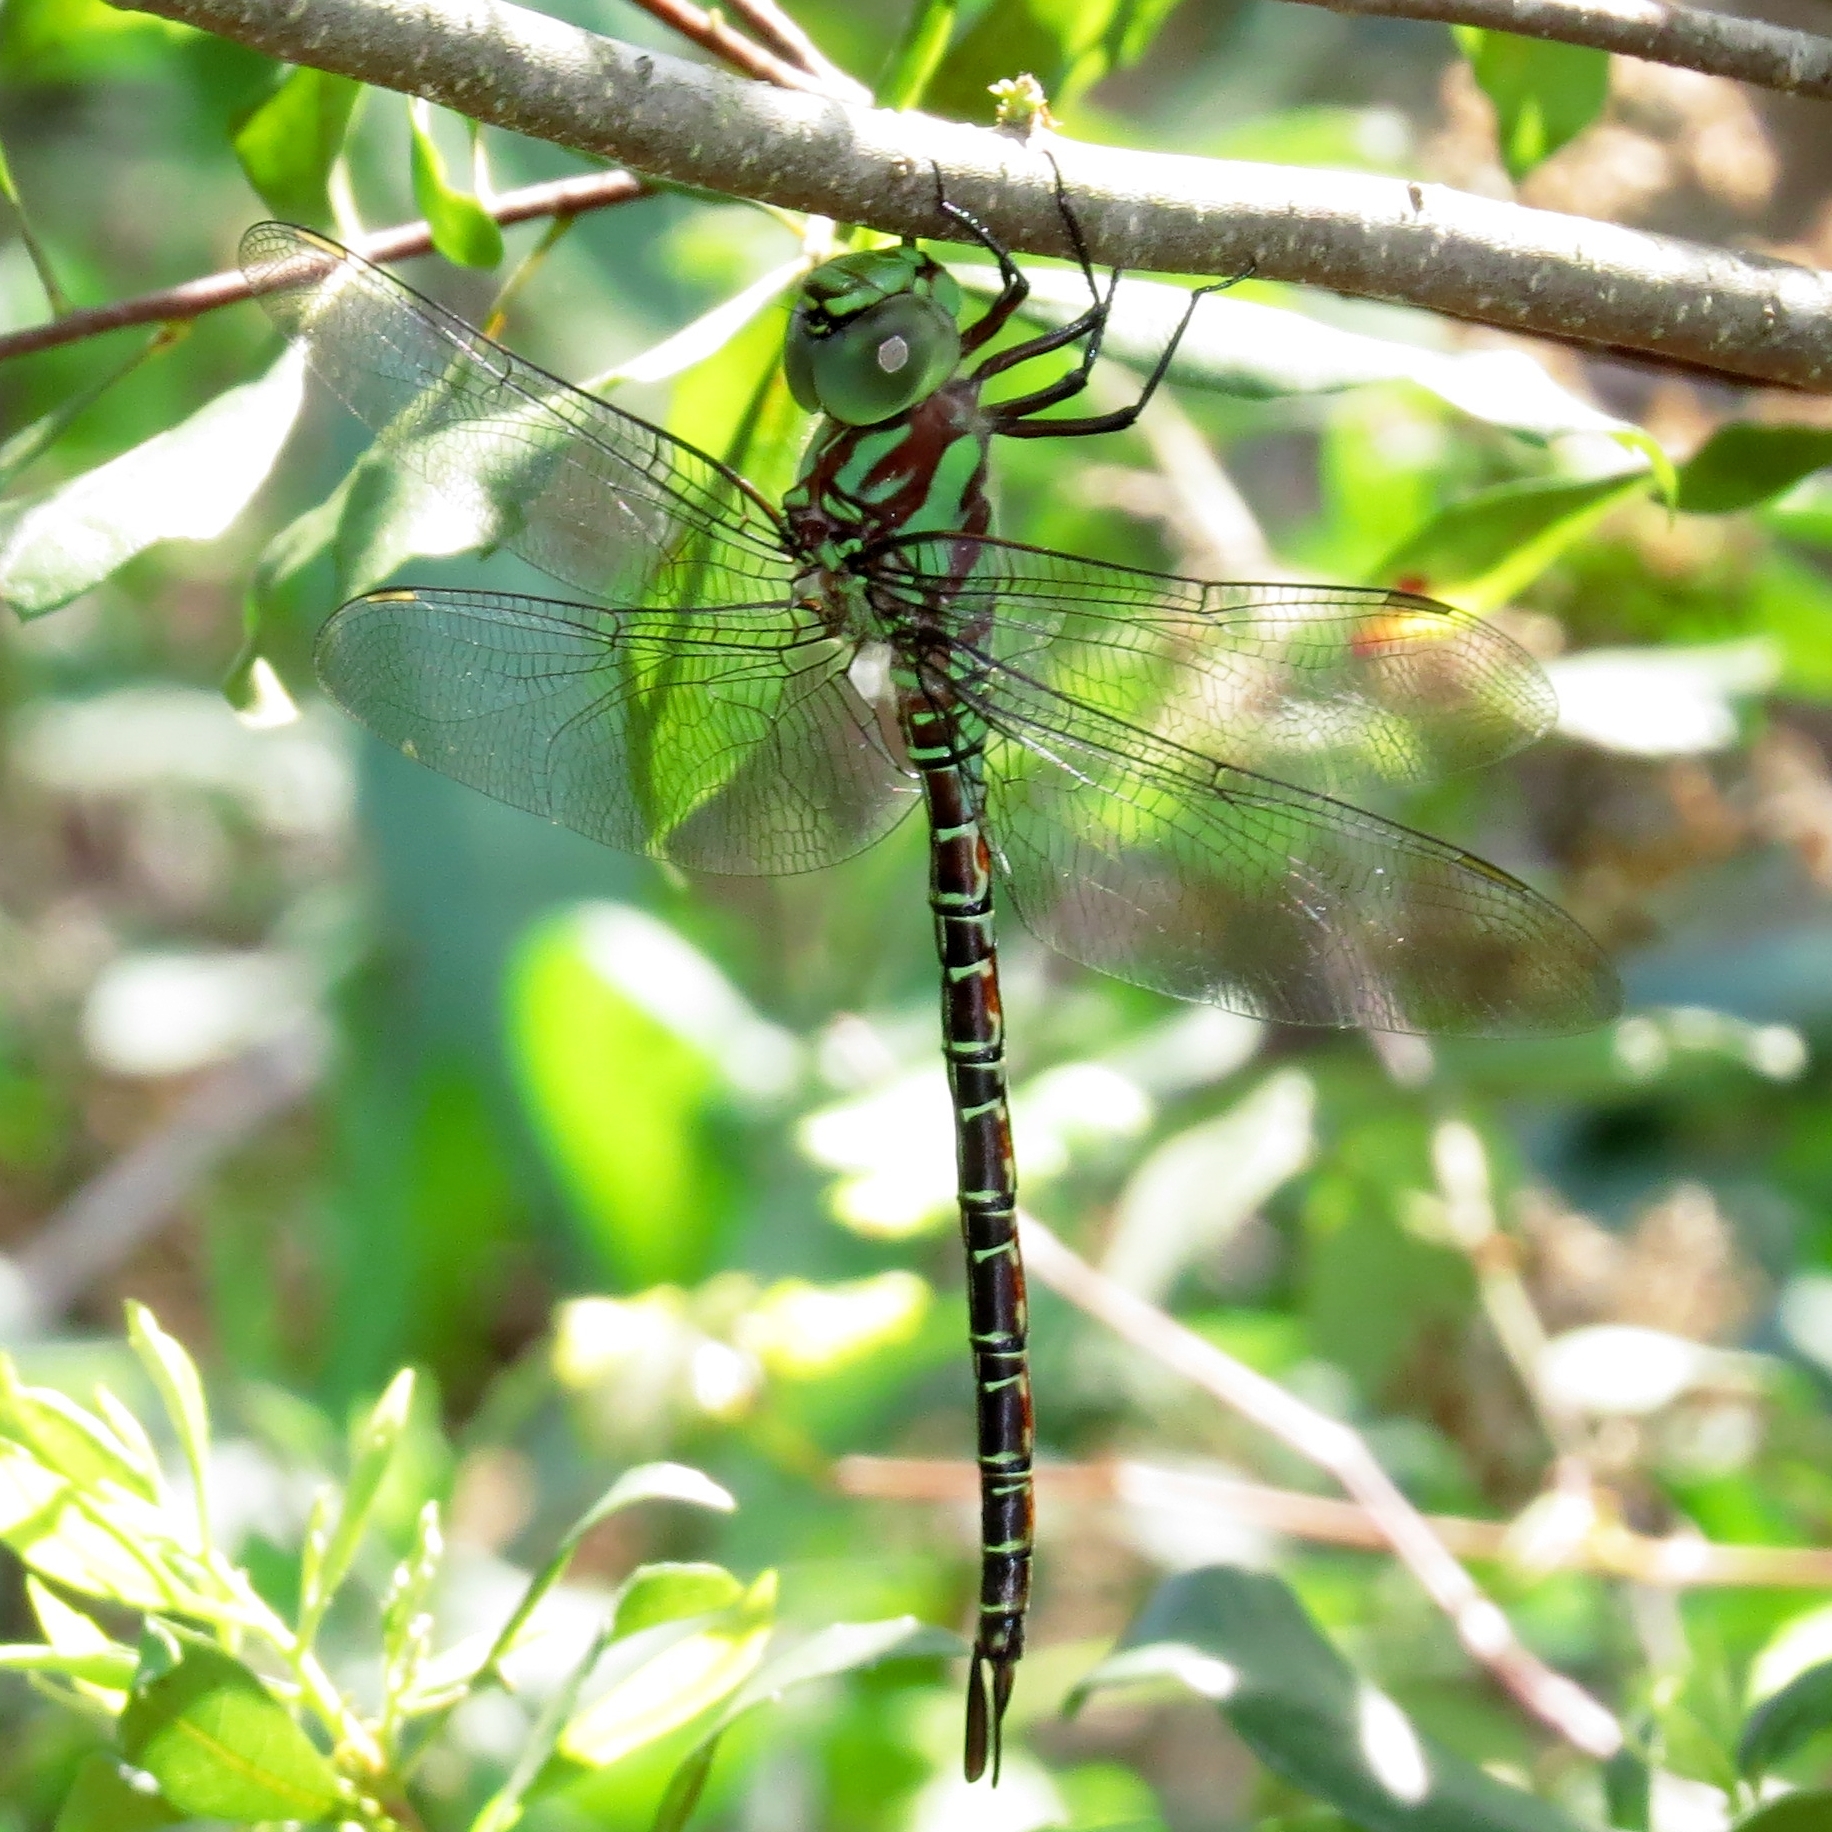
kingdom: Animalia
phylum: Arthropoda
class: Insecta
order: Odonata
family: Aeshnidae
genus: Coryphaeschna
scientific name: Coryphaeschna ingens
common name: Regal darner
